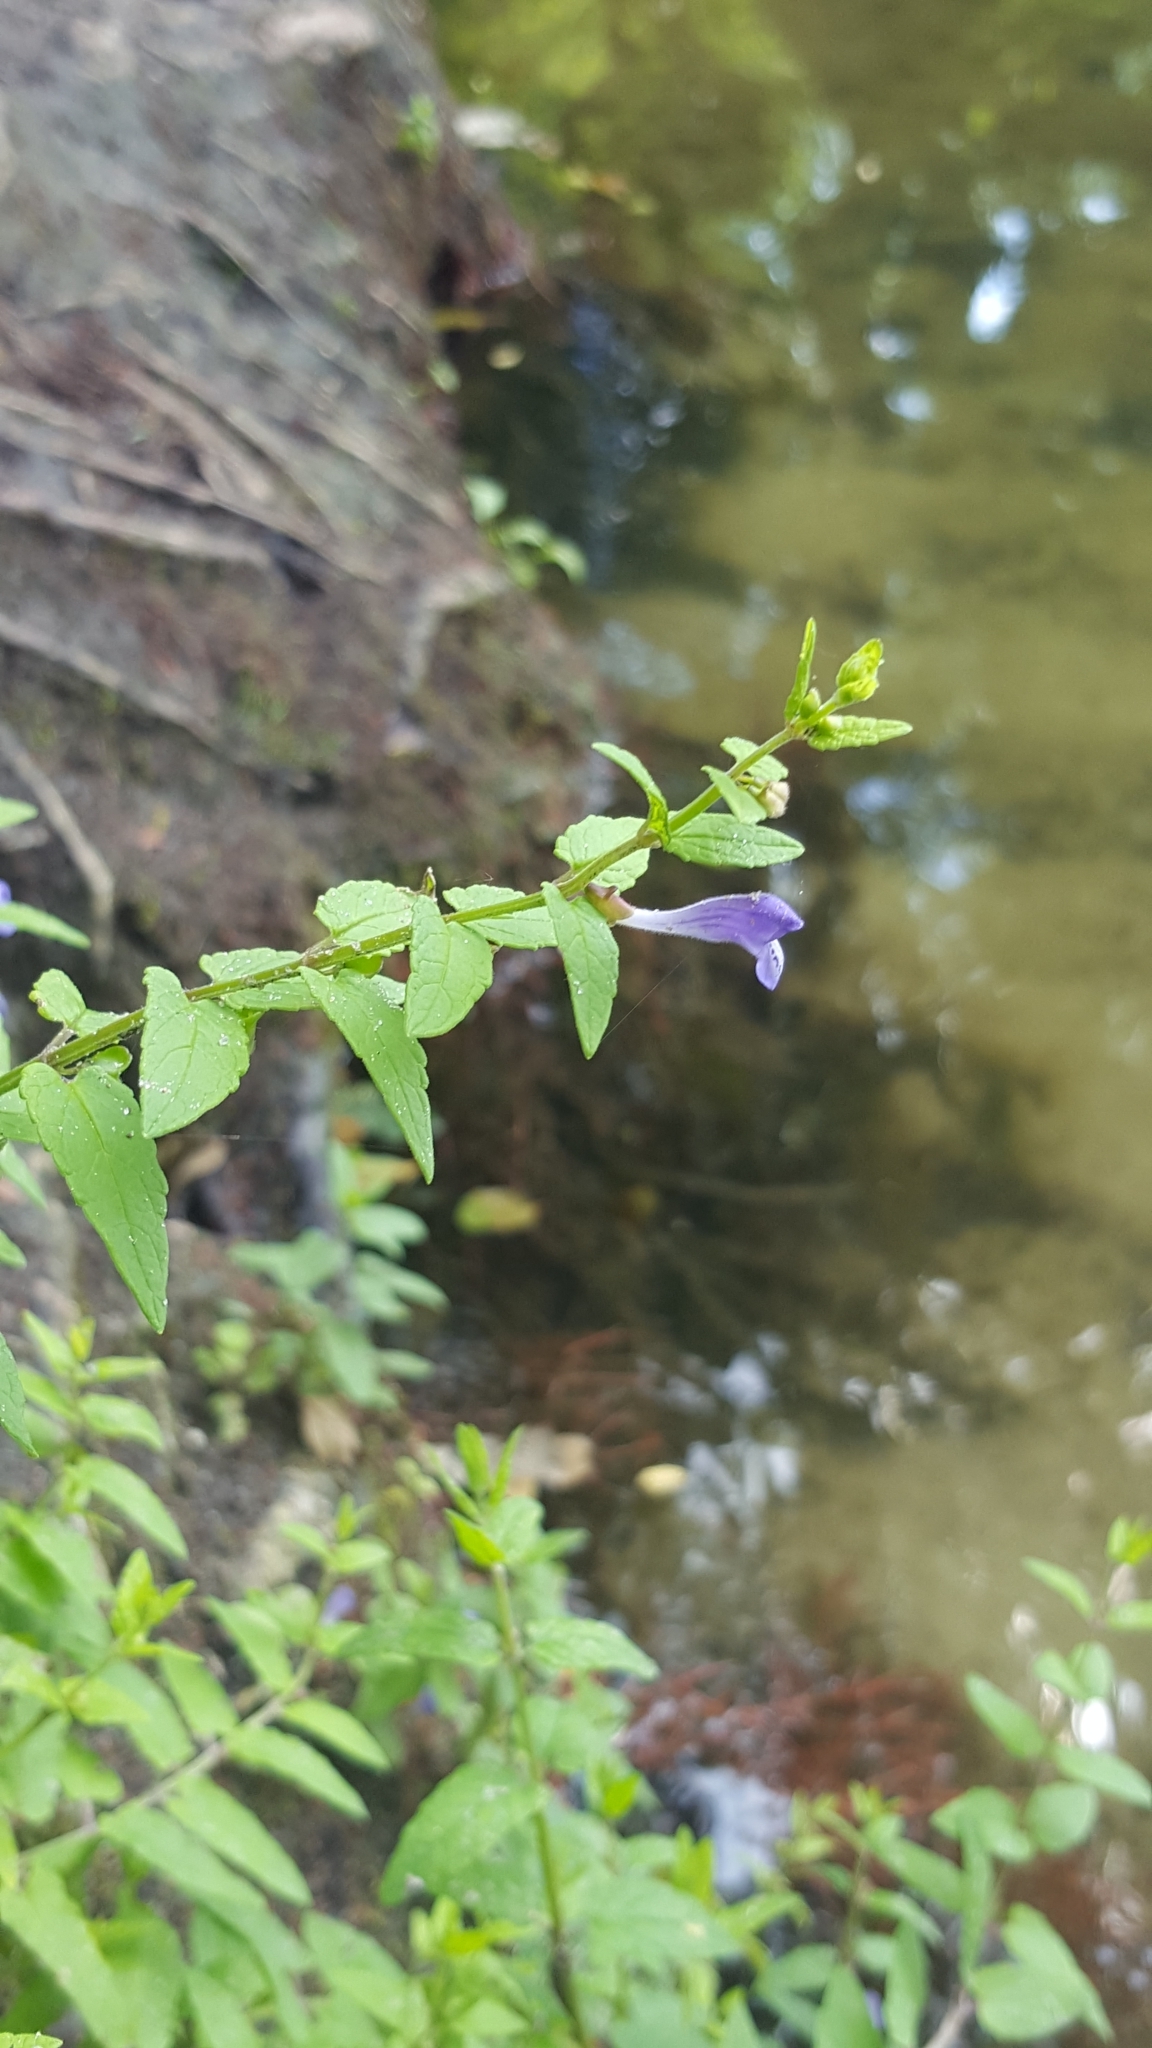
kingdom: Plantae
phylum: Tracheophyta
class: Magnoliopsida
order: Lamiales
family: Lamiaceae
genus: Scutellaria
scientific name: Scutellaria galericulata
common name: Skullcap
